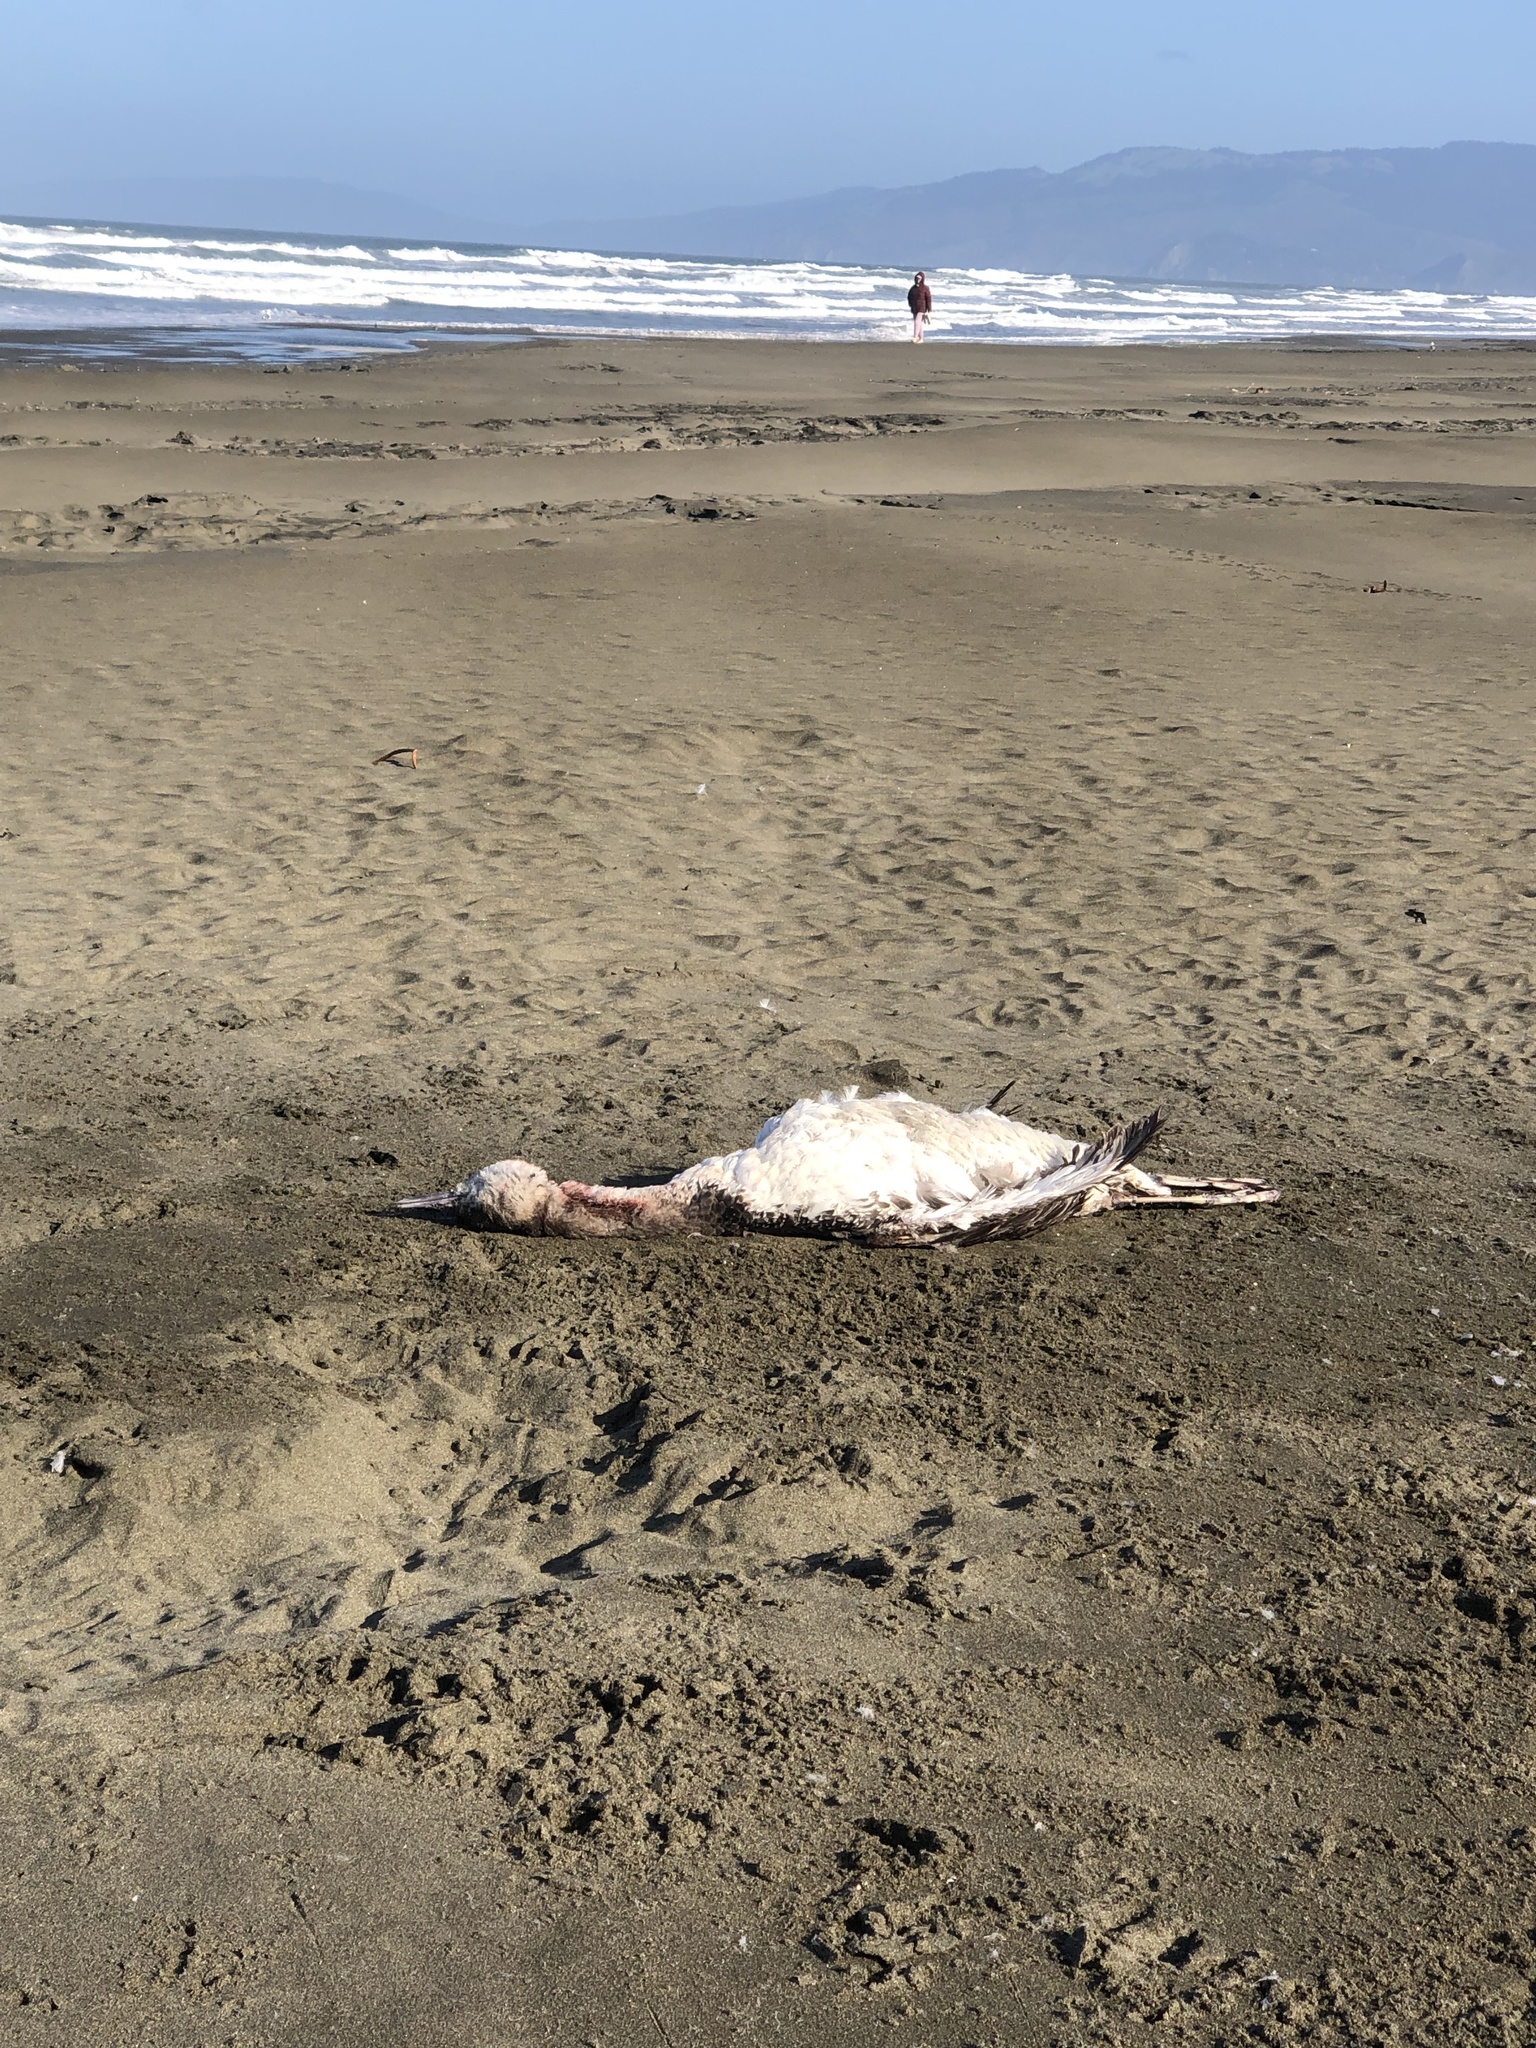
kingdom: Animalia
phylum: Chordata
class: Aves
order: Gaviiformes
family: Gaviidae
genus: Gavia
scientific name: Gavia stellata
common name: Red-throated loon
